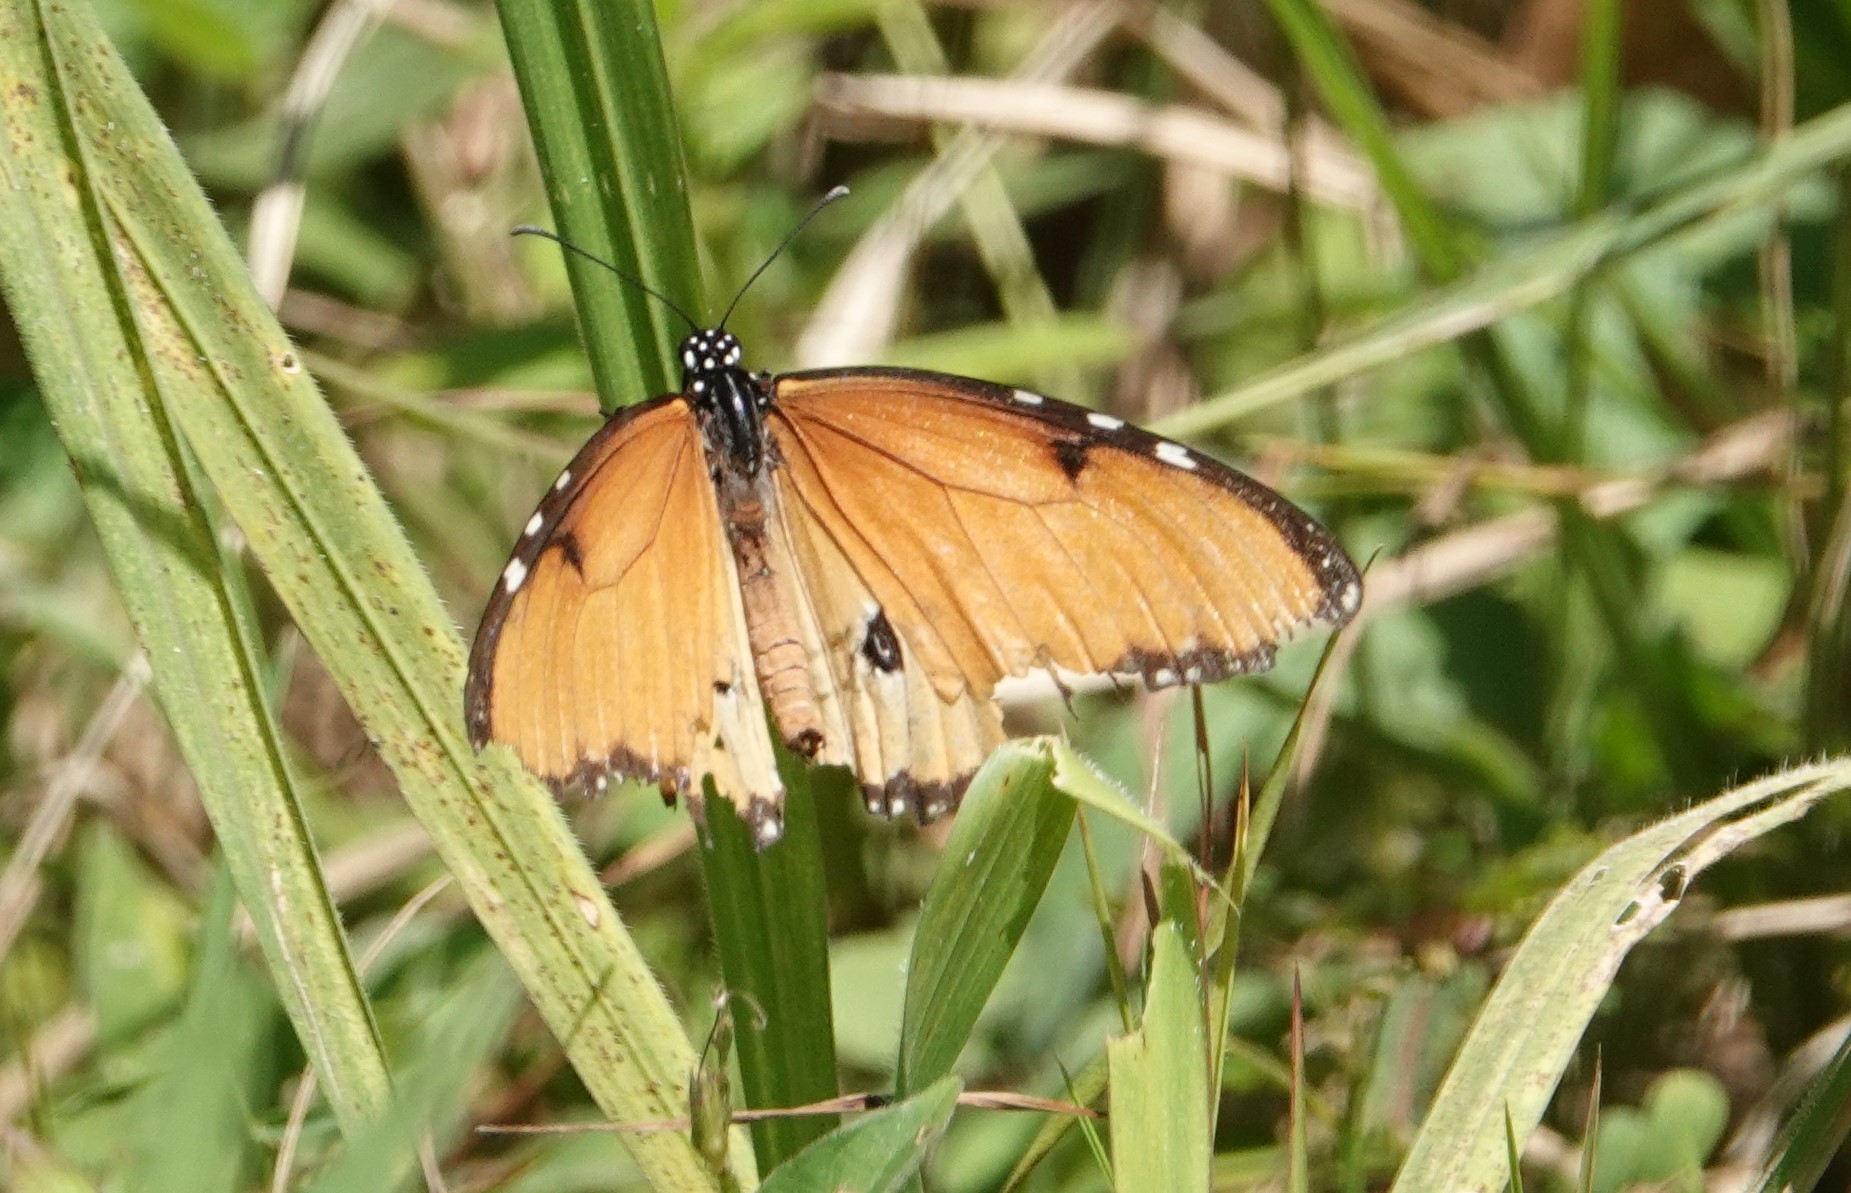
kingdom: Animalia
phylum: Arthropoda
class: Insecta
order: Lepidoptera
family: Nymphalidae
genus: Danaus
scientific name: Danaus chrysippus
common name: Plain tiger
